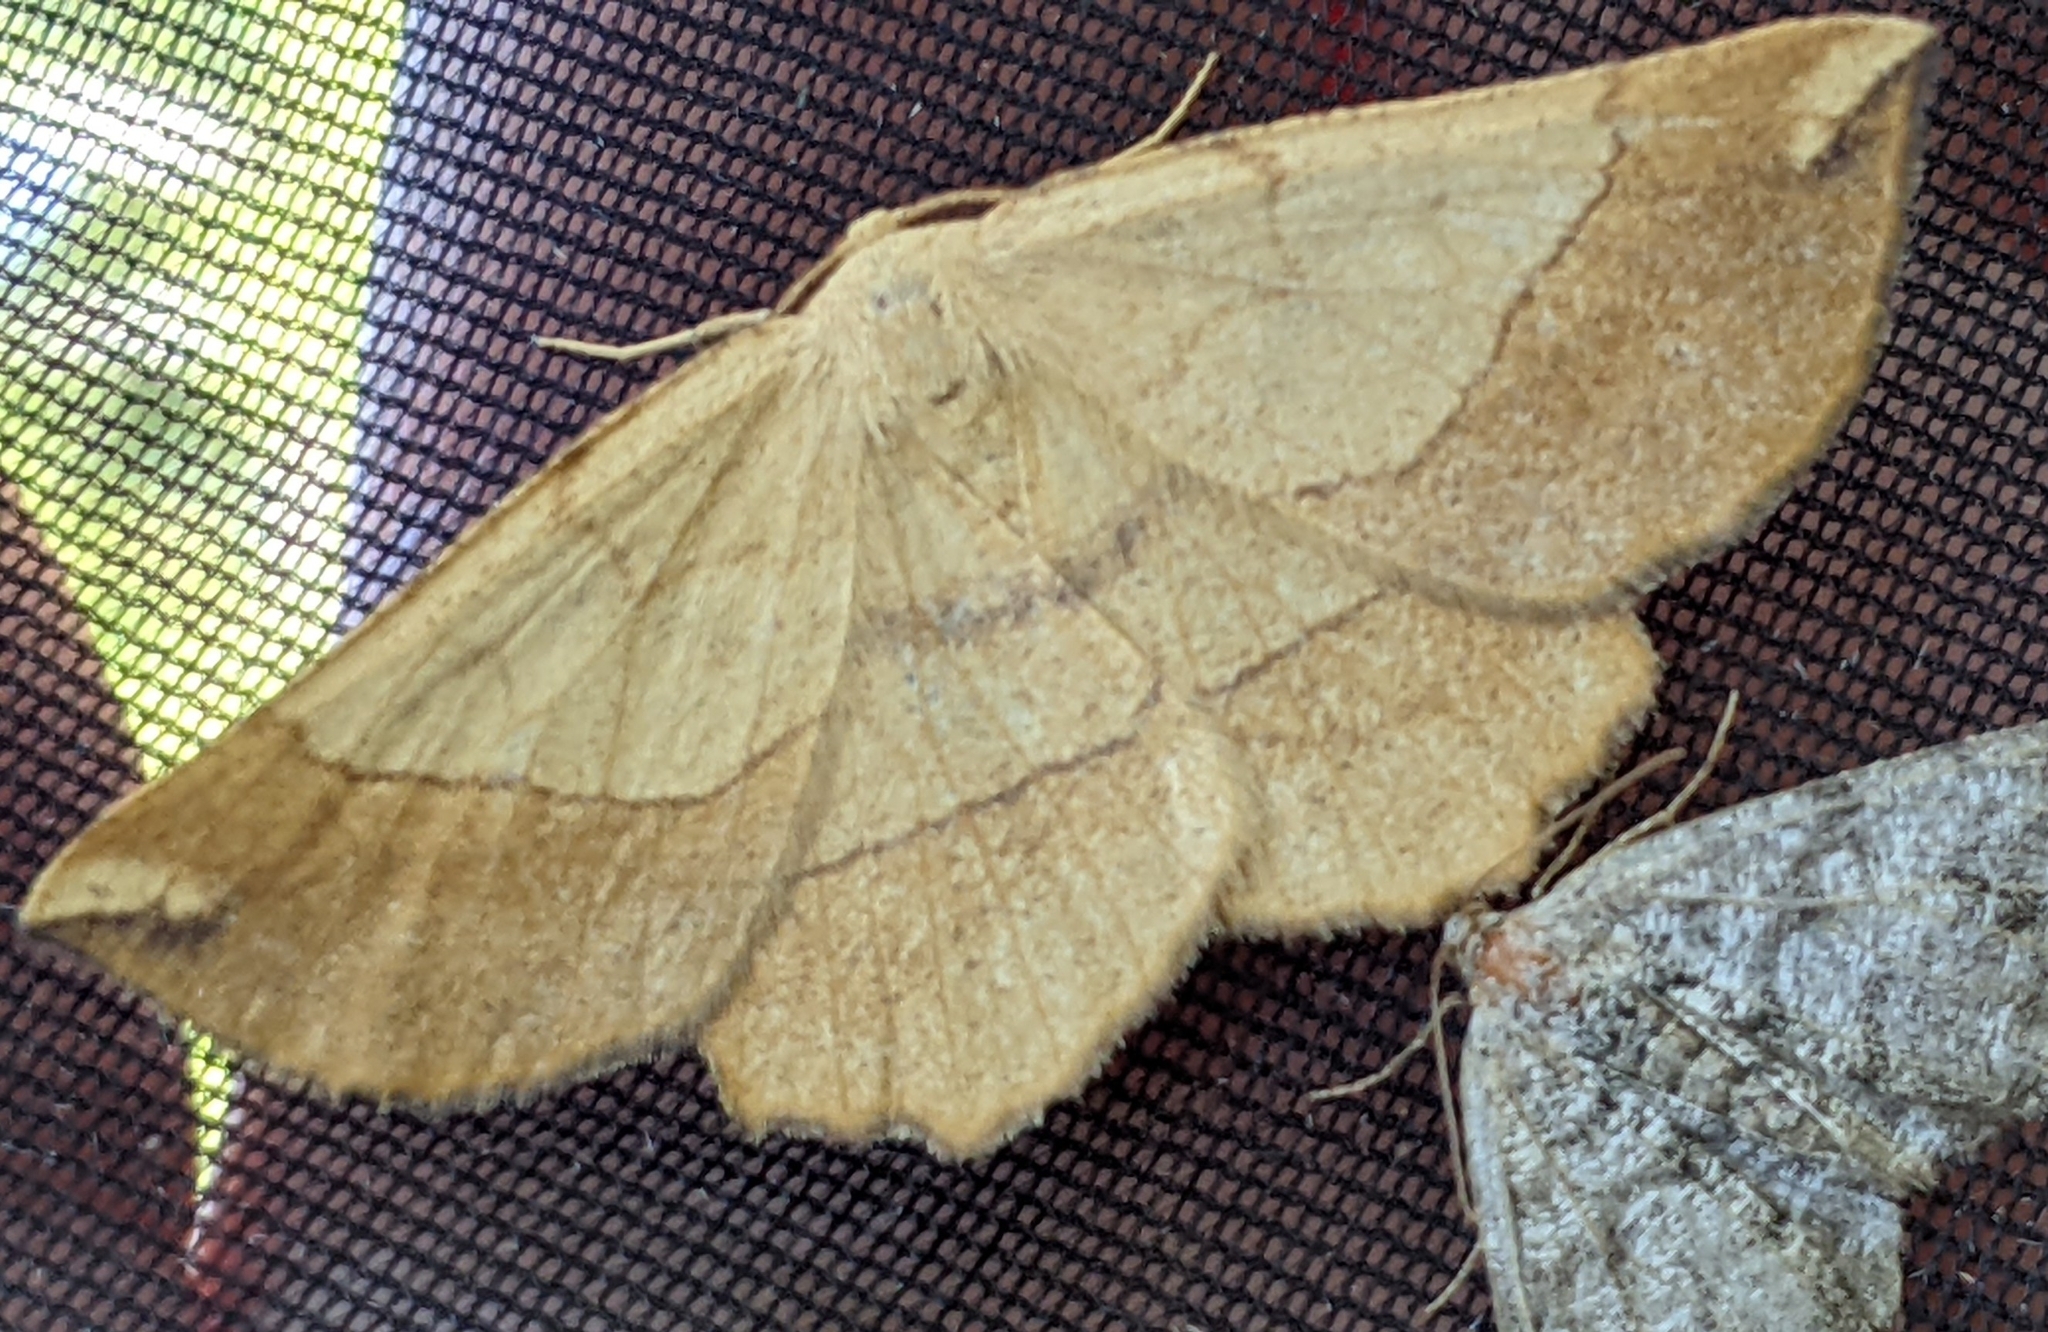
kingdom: Animalia
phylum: Arthropoda
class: Insecta
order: Lepidoptera
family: Geometridae
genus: Euchlaena
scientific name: Euchlaena madusaria
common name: Scrub euchlaena moth
